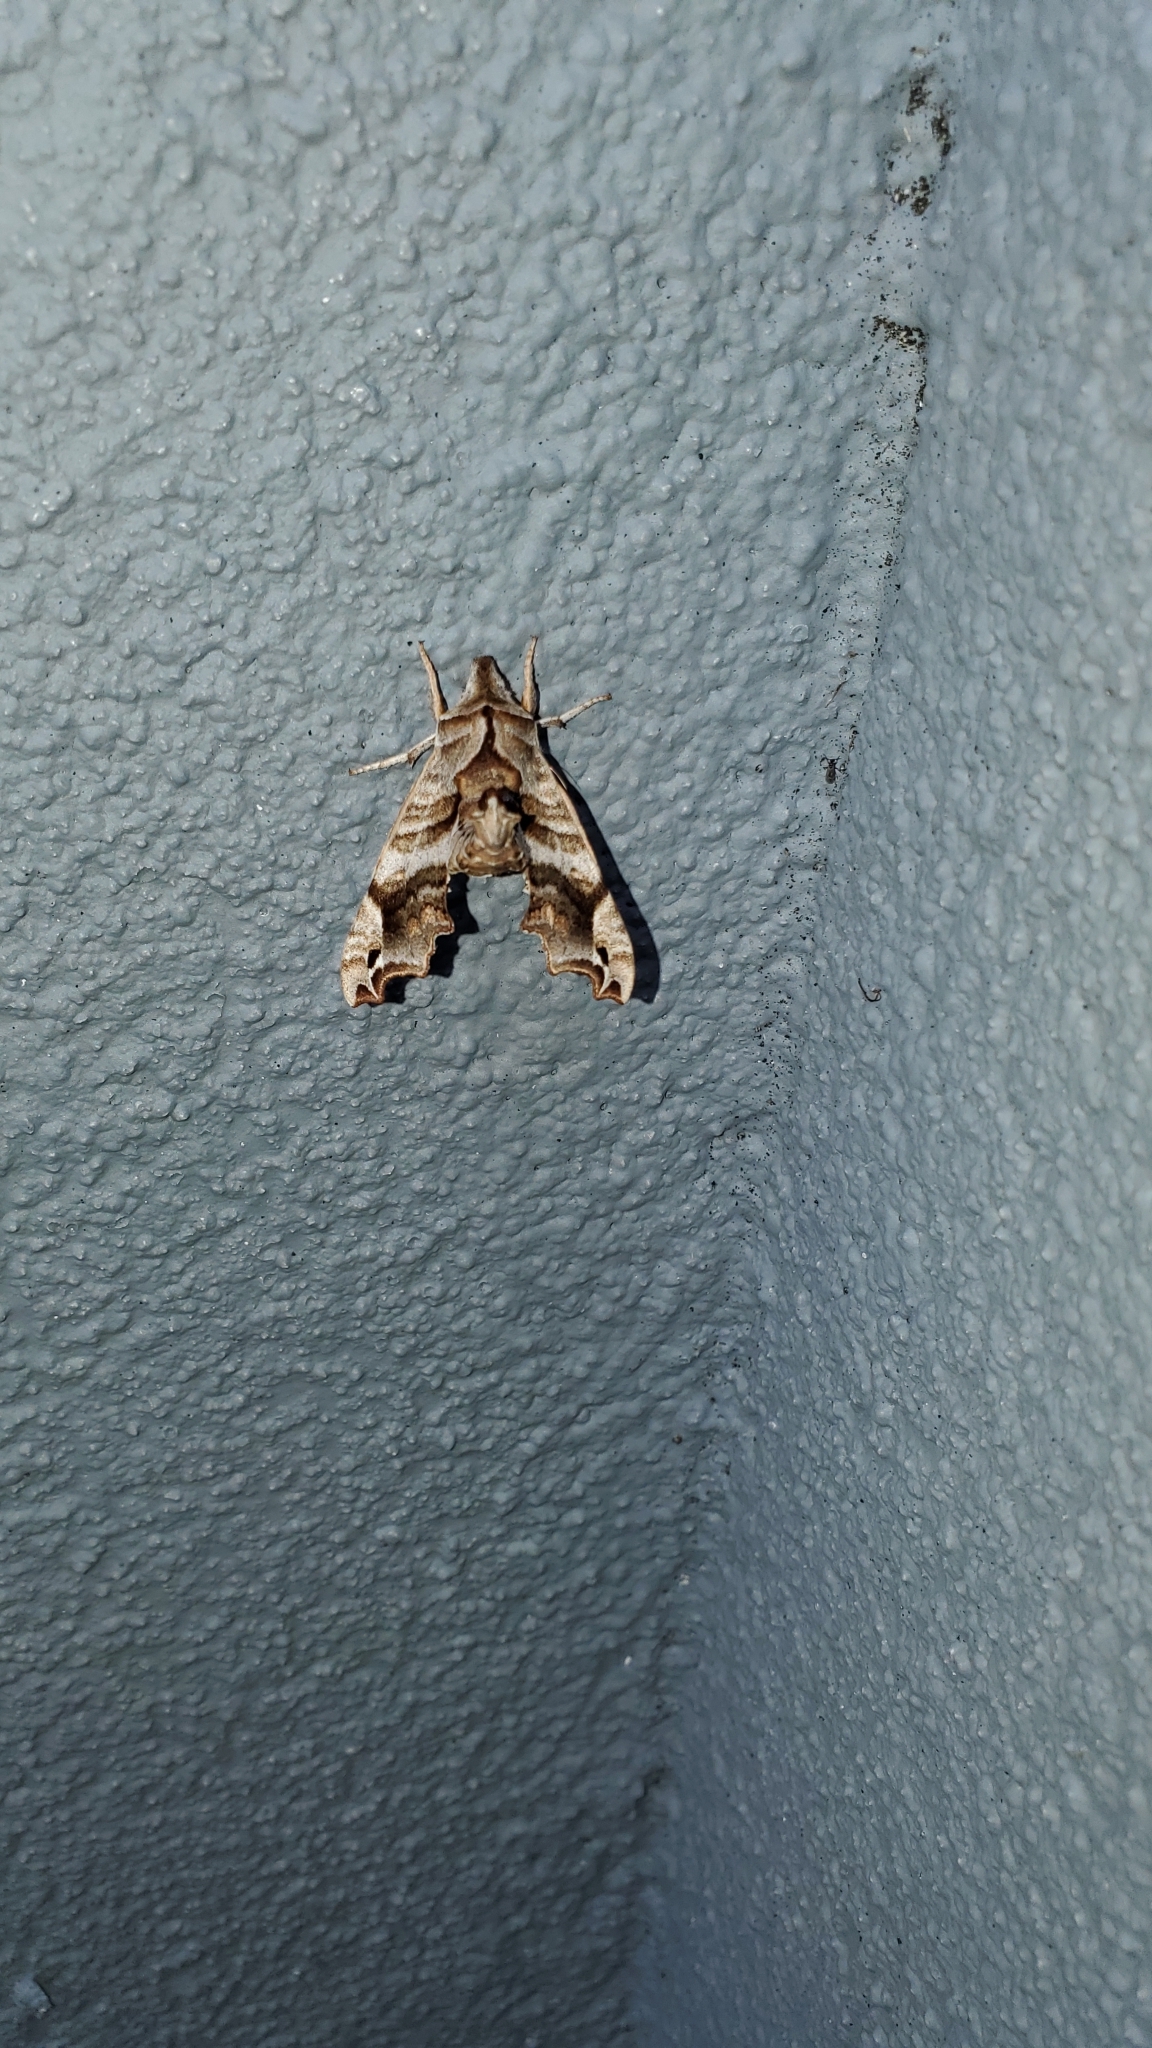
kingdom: Animalia
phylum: Arthropoda
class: Insecta
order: Lepidoptera
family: Sphingidae
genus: Deidamia
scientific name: Deidamia inscriptum
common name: Lettered sphinx
